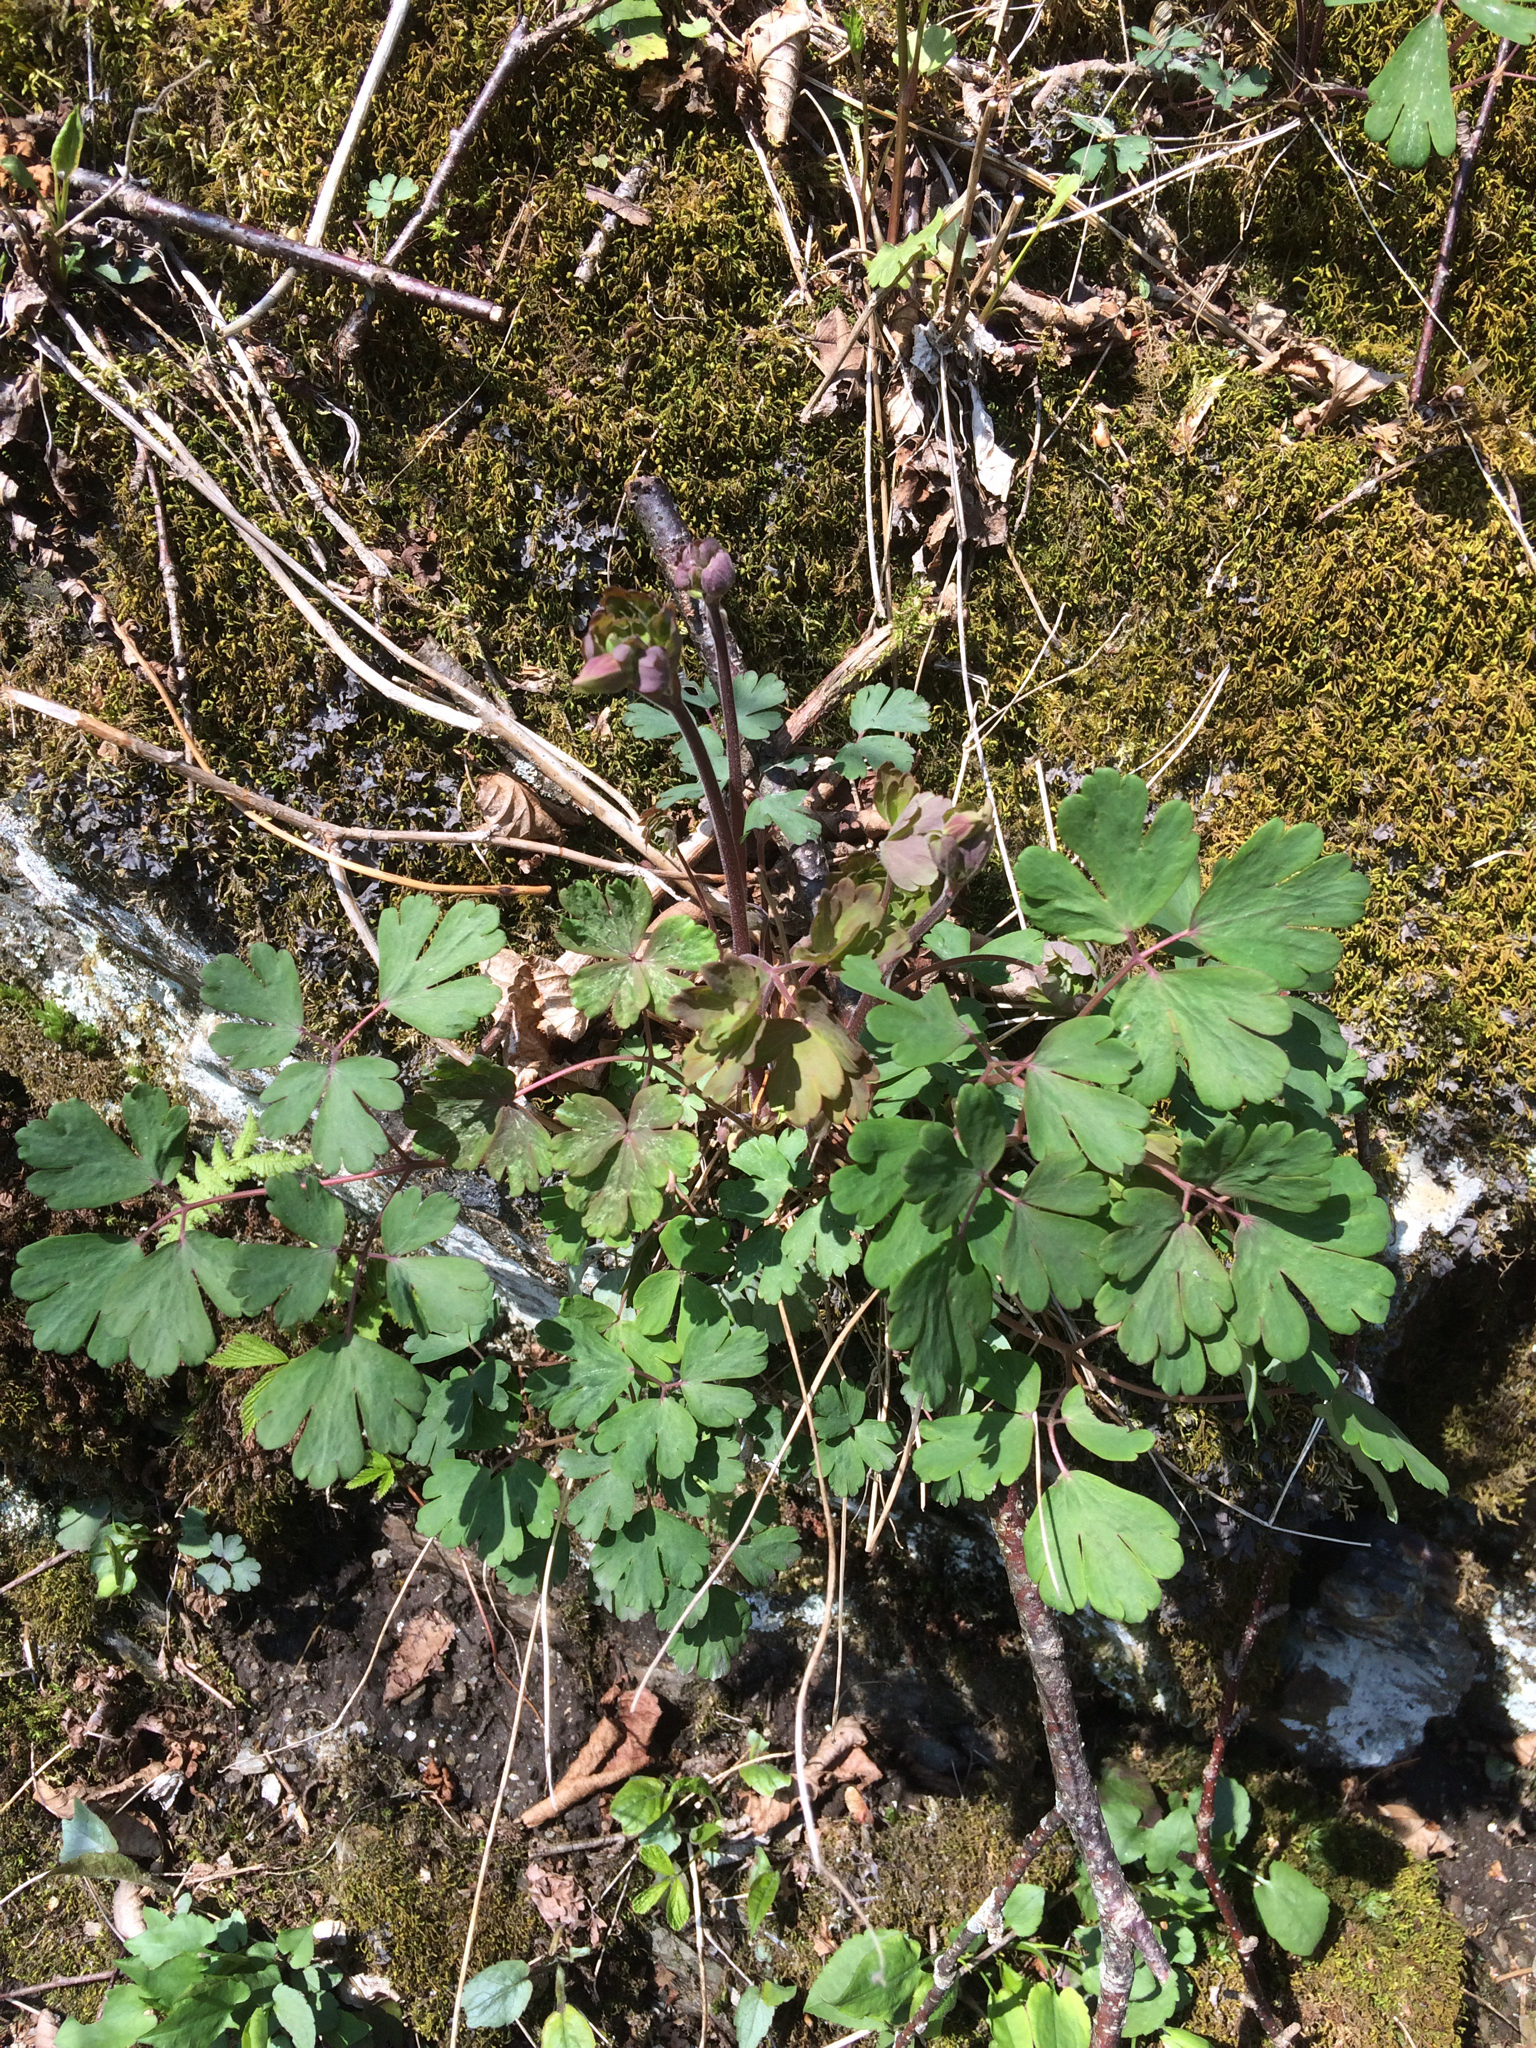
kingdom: Plantae
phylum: Tracheophyta
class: Magnoliopsida
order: Ranunculales
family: Ranunculaceae
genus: Aquilegia
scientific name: Aquilegia canadensis
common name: American columbine
